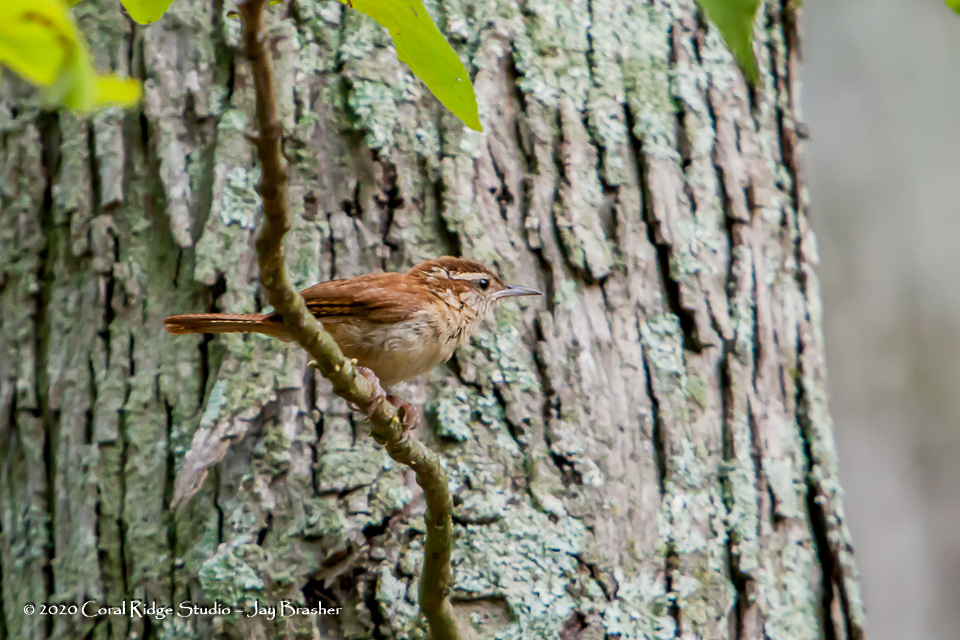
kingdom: Animalia
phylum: Chordata
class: Aves
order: Passeriformes
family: Troglodytidae
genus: Thryothorus
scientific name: Thryothorus ludovicianus
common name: Carolina wren
